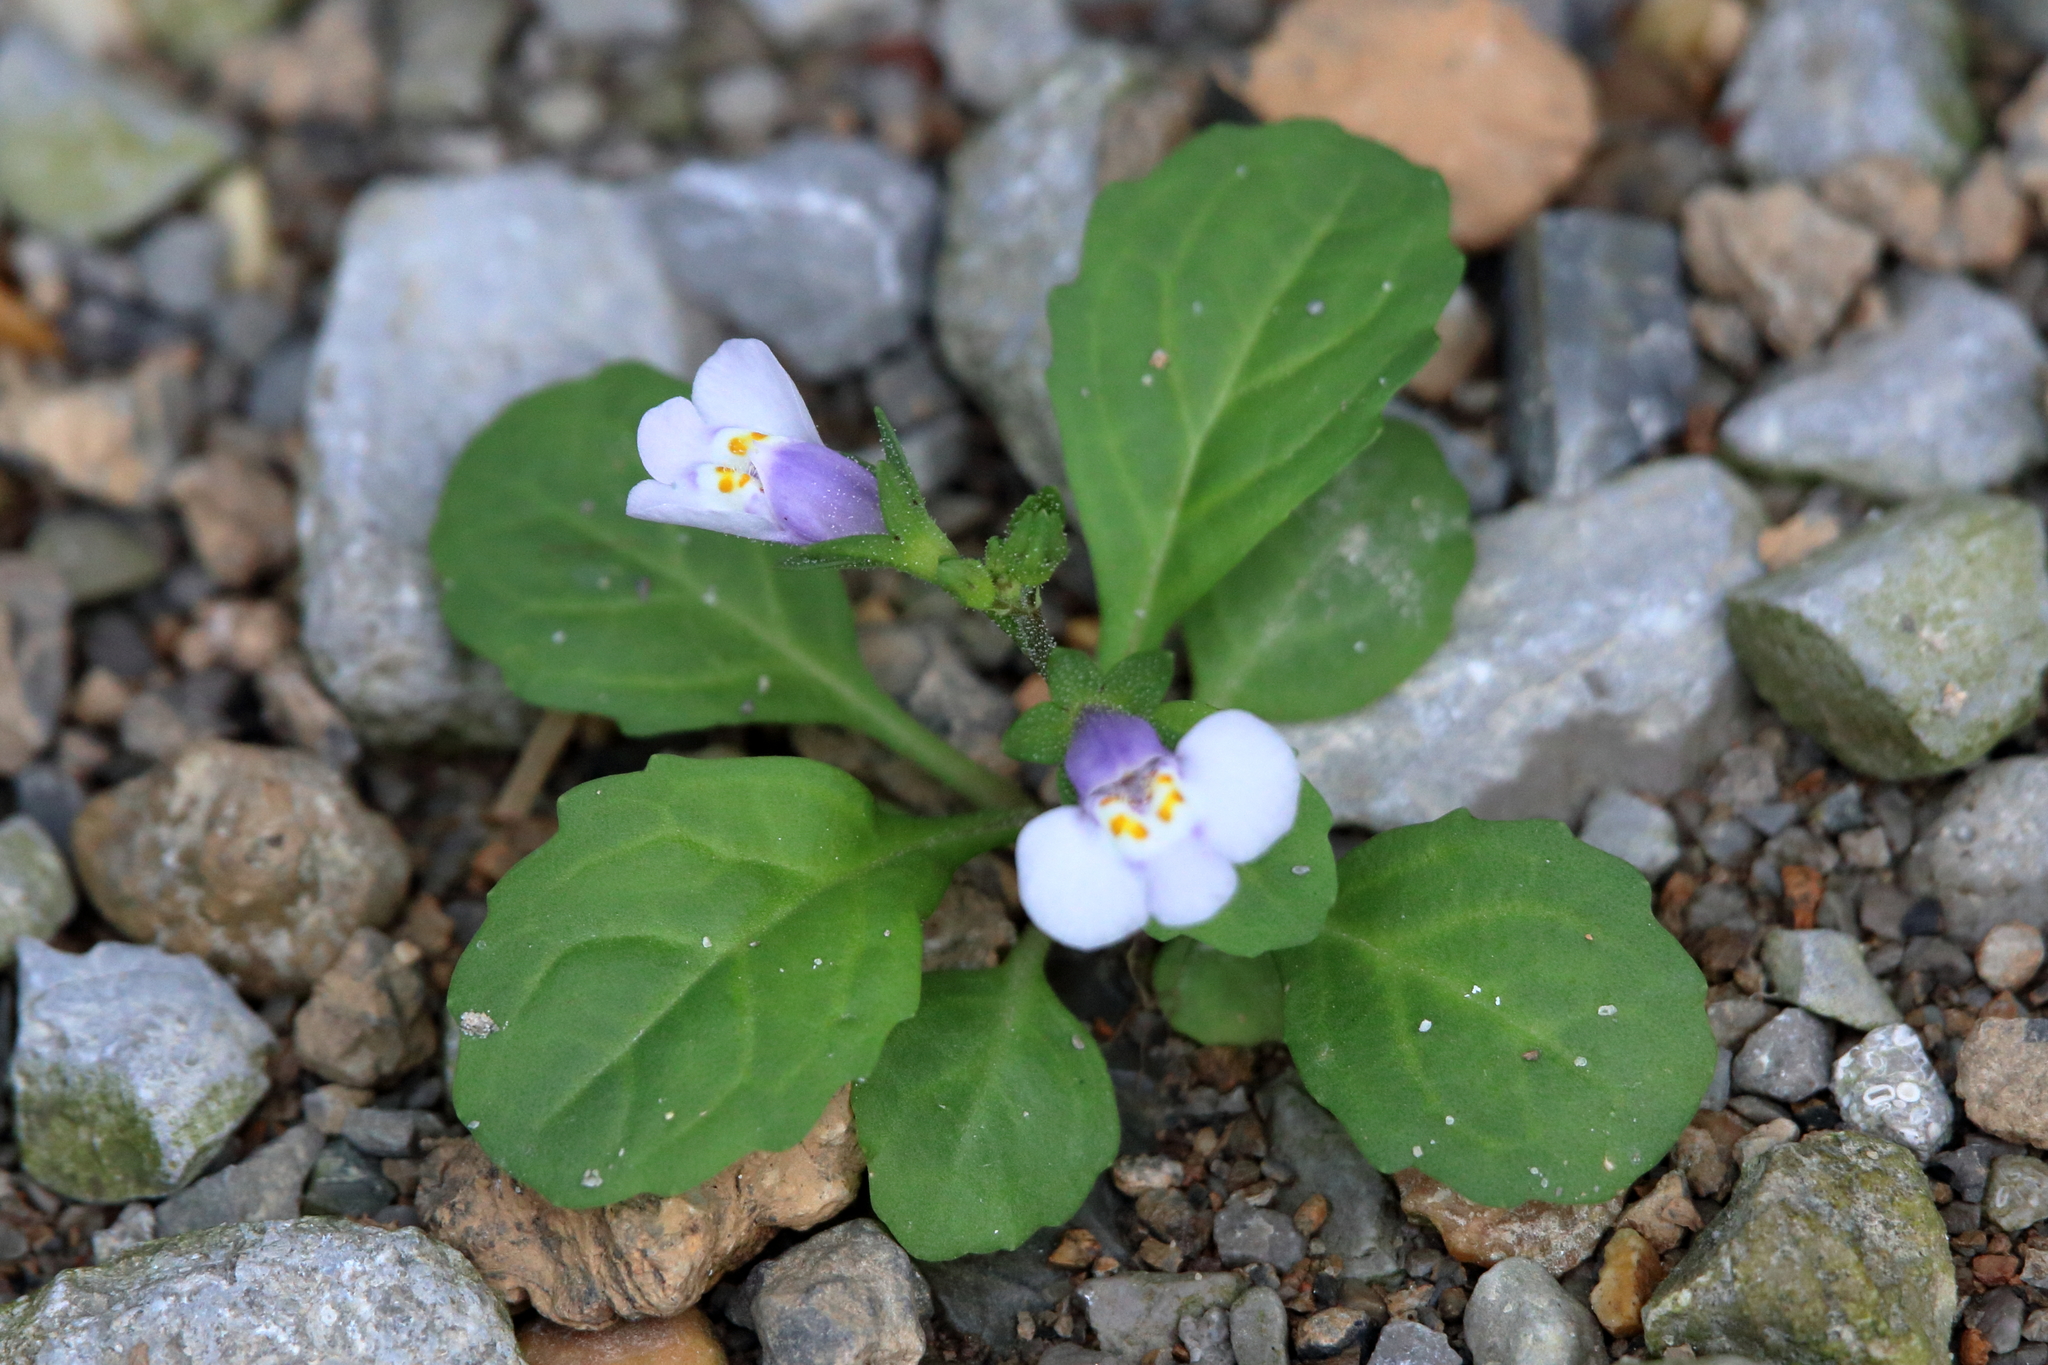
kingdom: Plantae
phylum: Tracheophyta
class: Magnoliopsida
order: Lamiales
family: Mazaceae
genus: Mazus
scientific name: Mazus pumilus
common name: Japanese mazus
